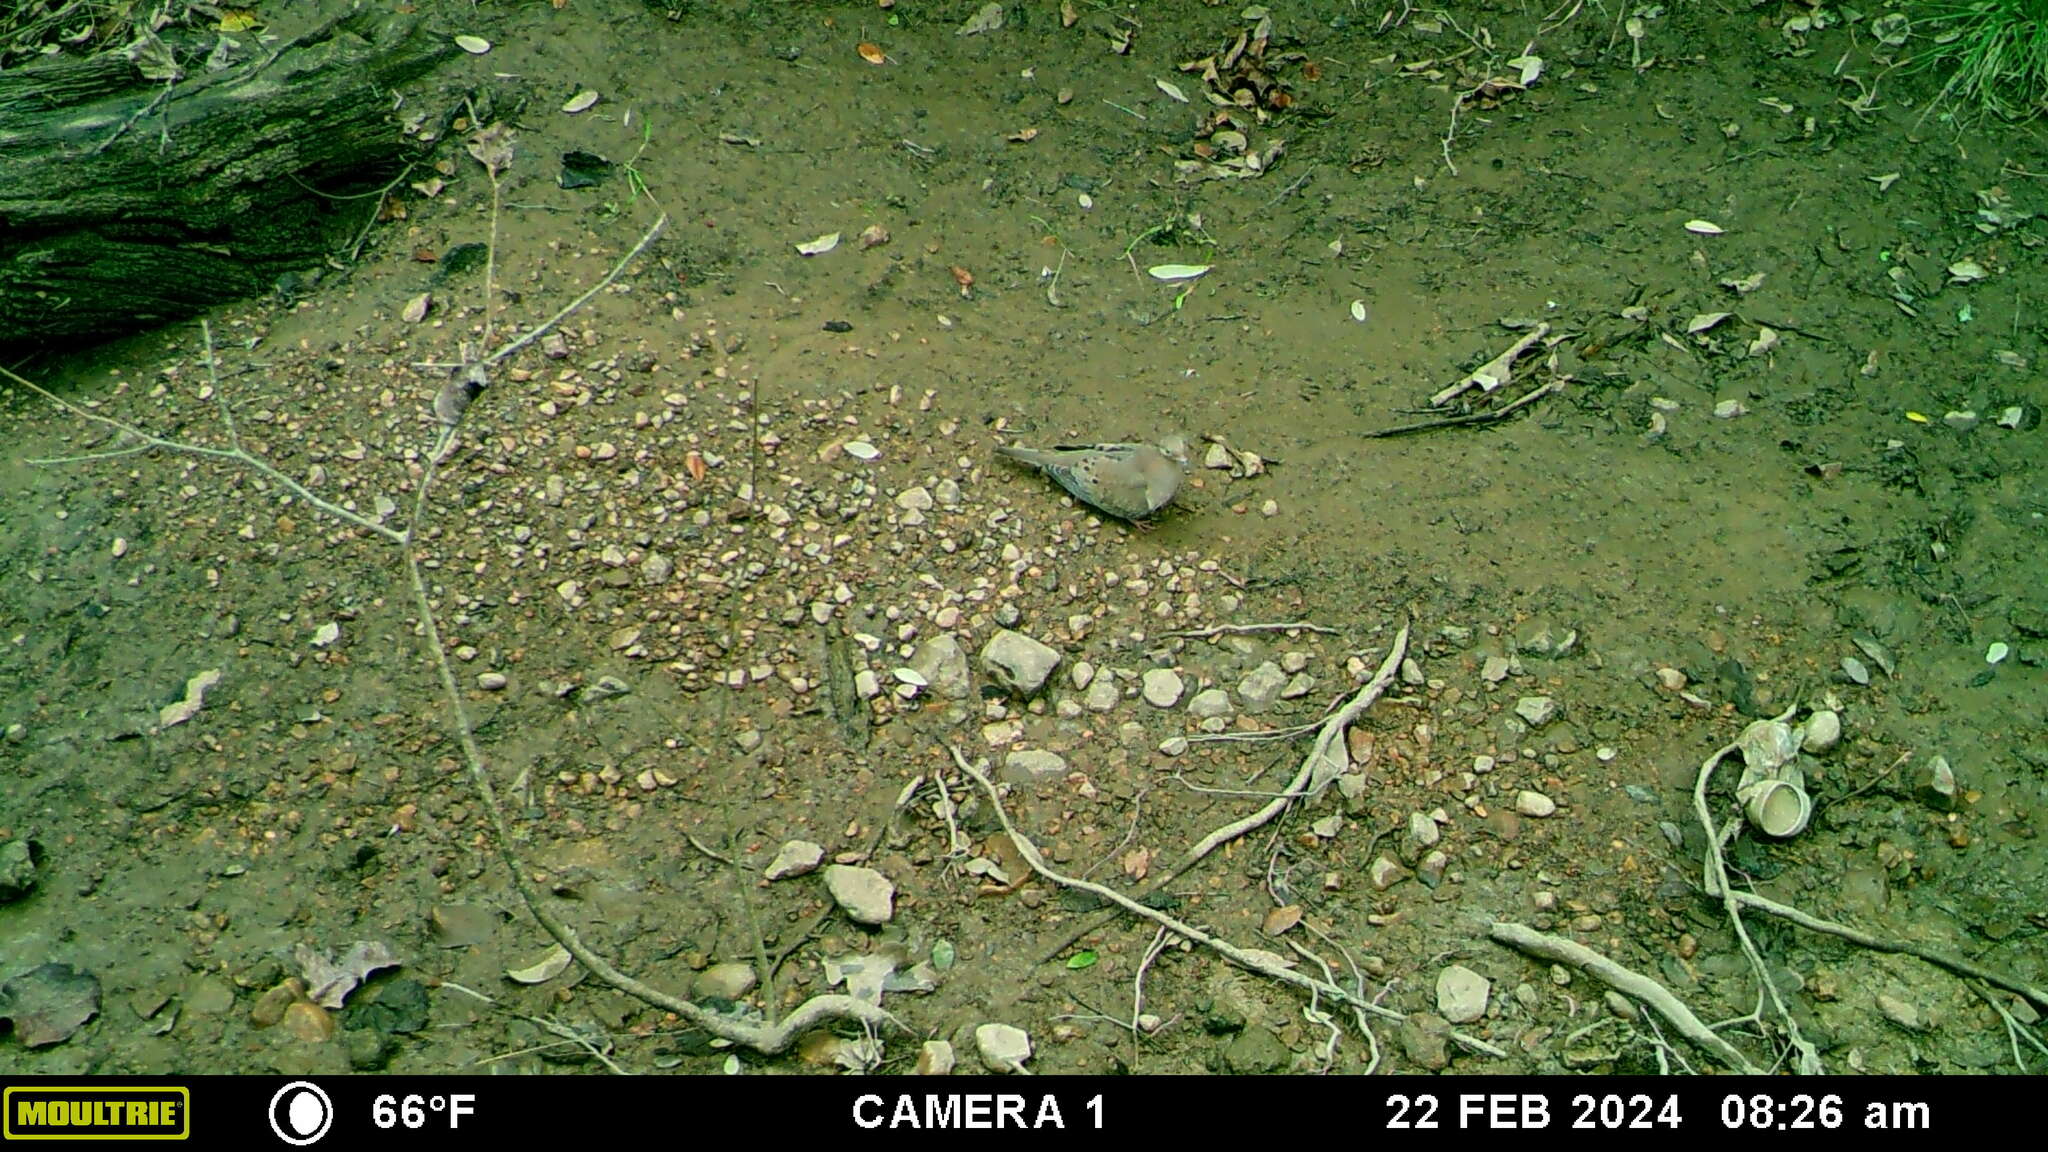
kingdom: Animalia
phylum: Chordata
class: Aves
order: Columbiformes
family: Columbidae
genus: Zenaida
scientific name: Zenaida macroura
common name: Mourning dove
